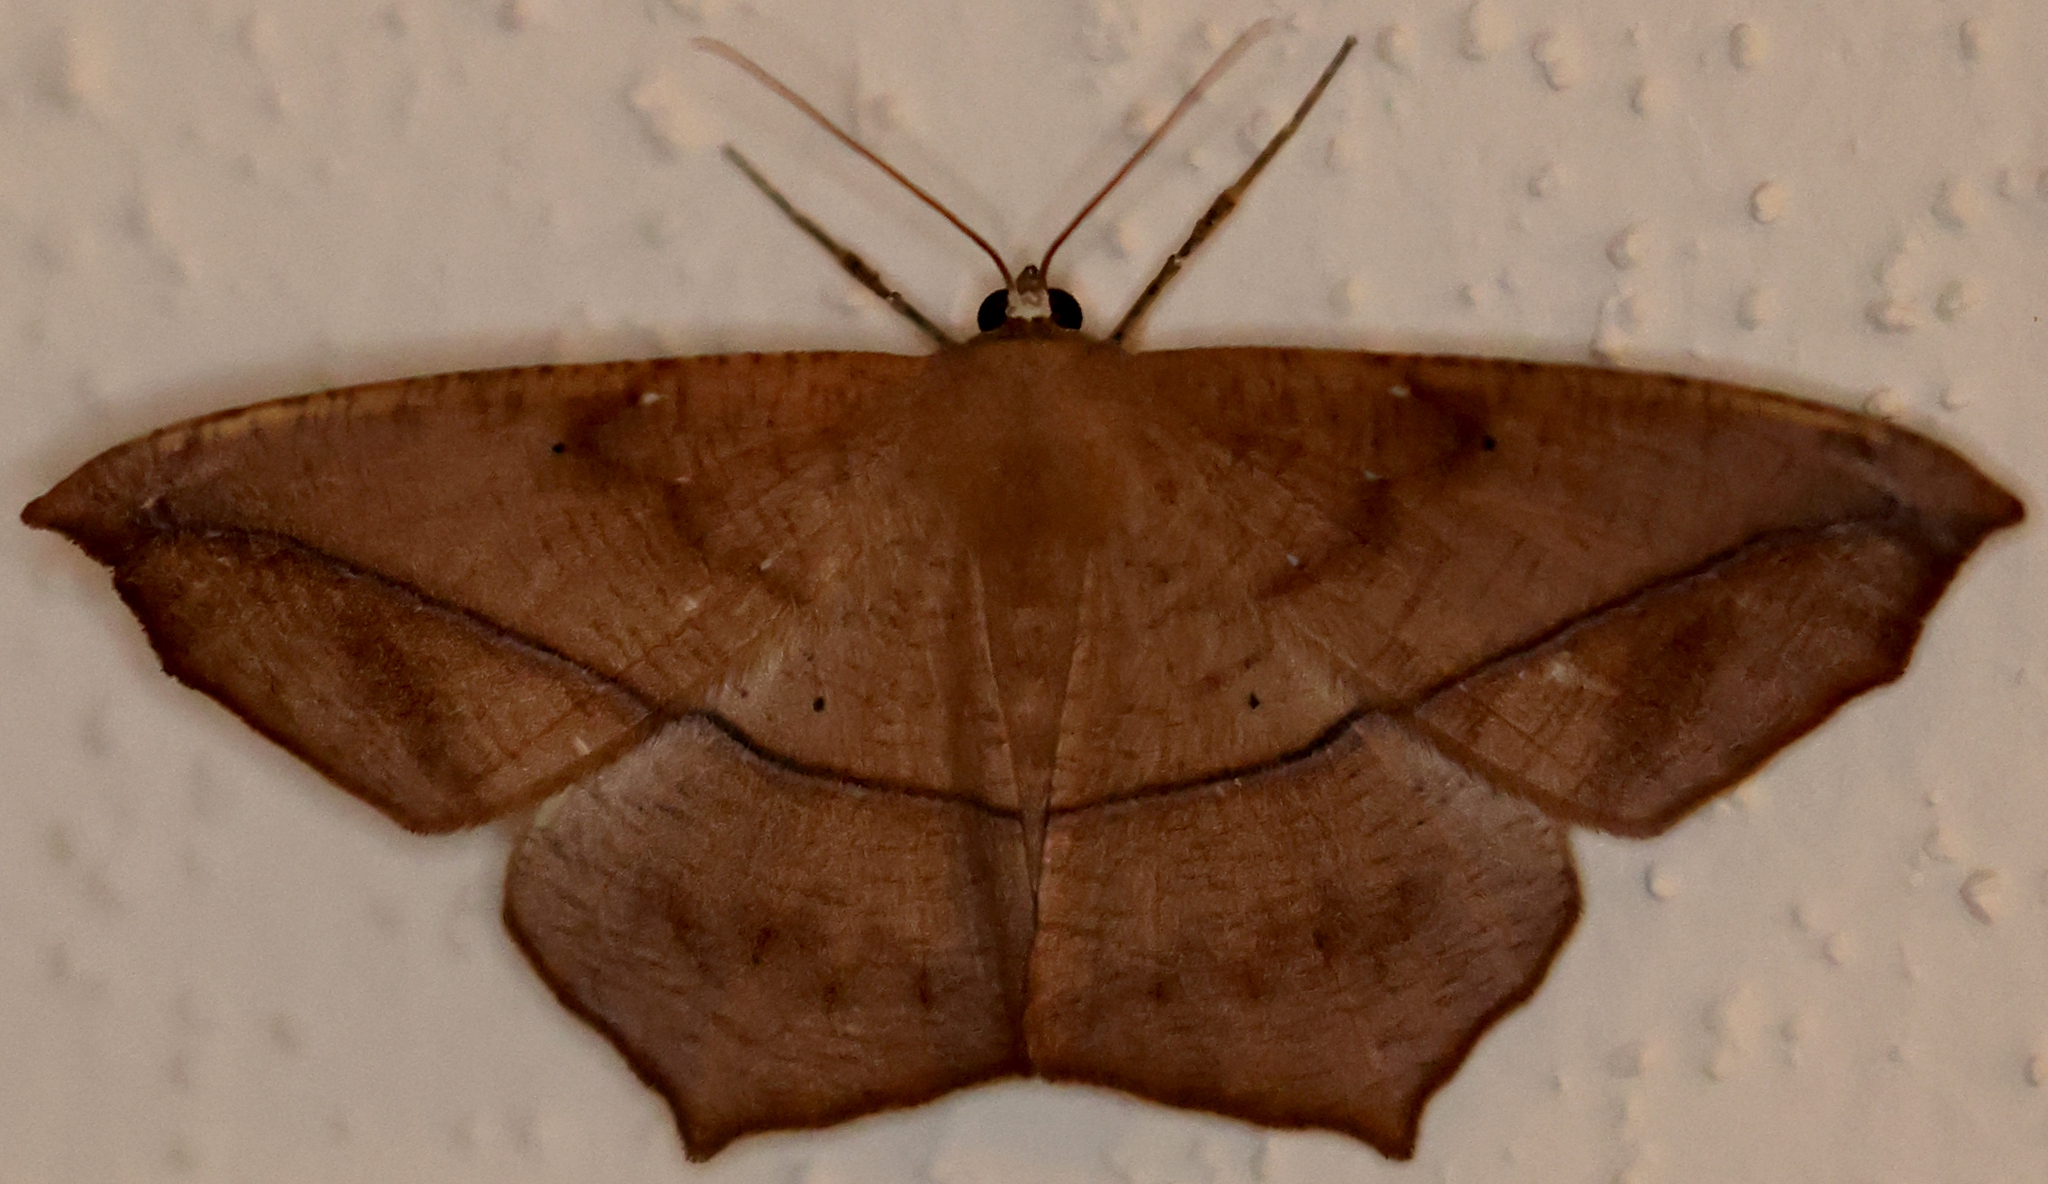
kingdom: Animalia
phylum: Arthropoda
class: Insecta
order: Lepidoptera
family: Geometridae
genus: Prochoerodes
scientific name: Prochoerodes lineola
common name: Large maple spanworm
